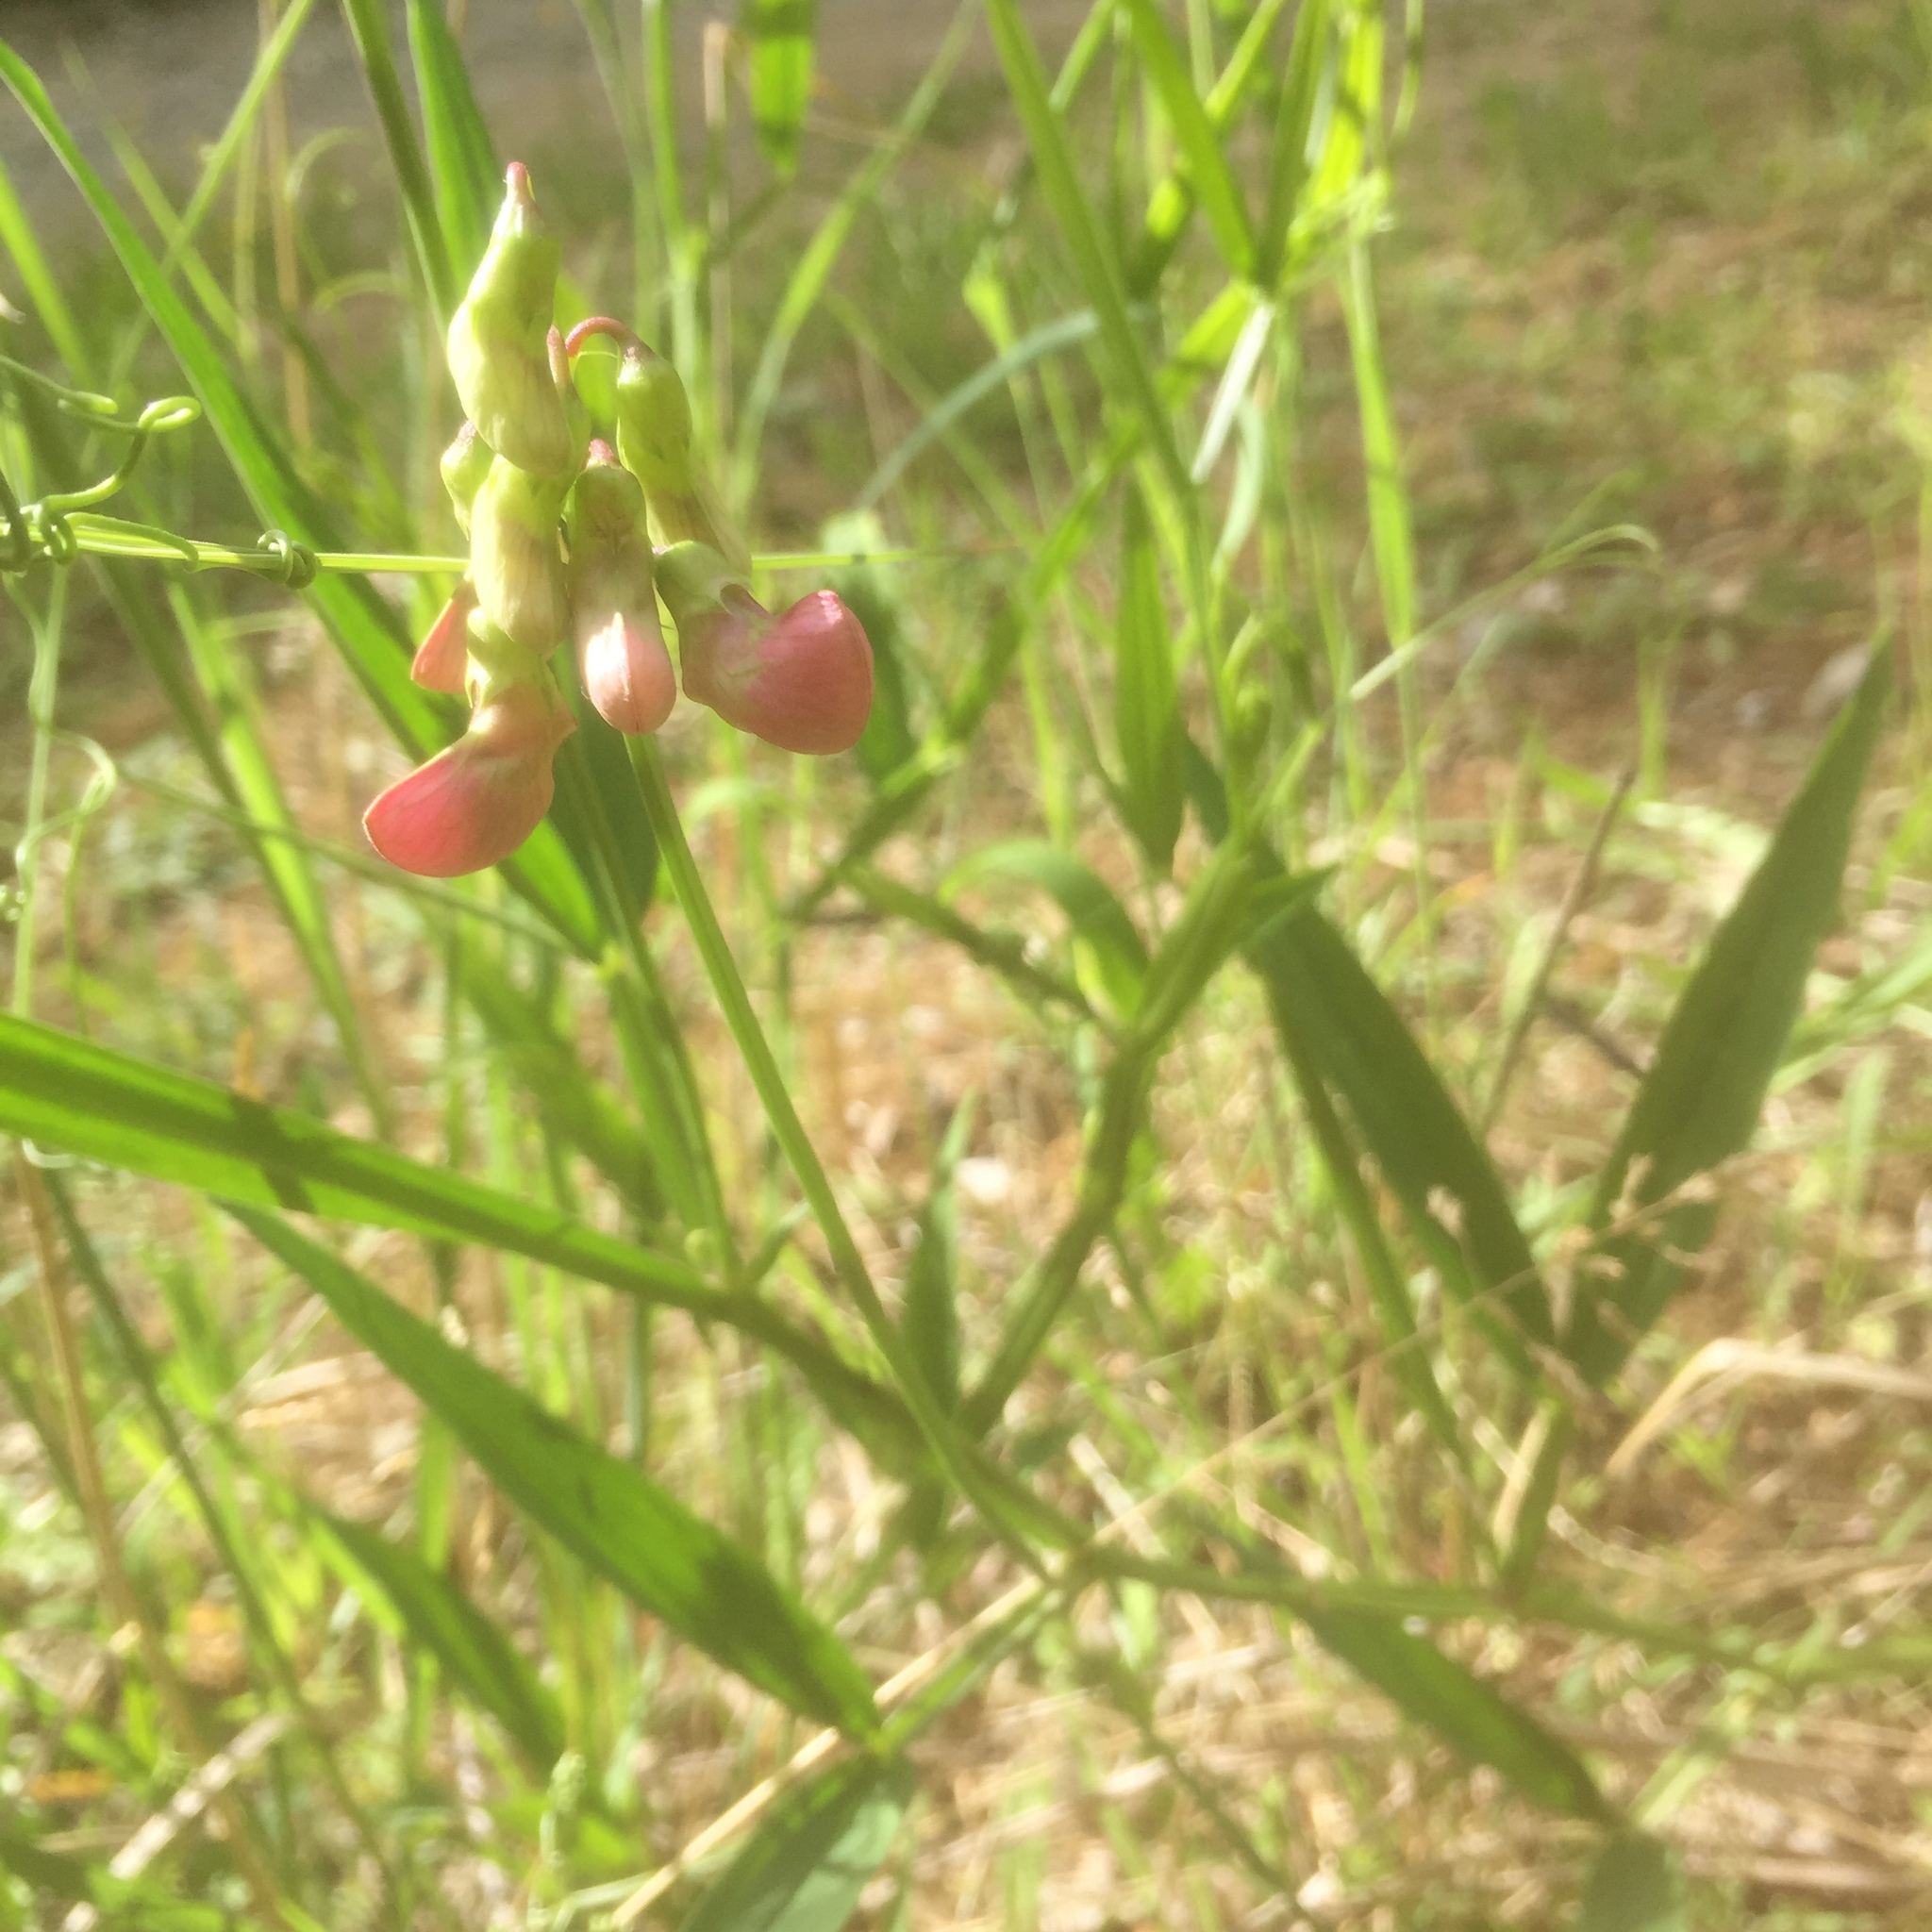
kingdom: Plantae
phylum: Tracheophyta
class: Magnoliopsida
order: Fabales
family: Fabaceae
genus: Lathyrus
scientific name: Lathyrus sylvestris
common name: Flat pea
